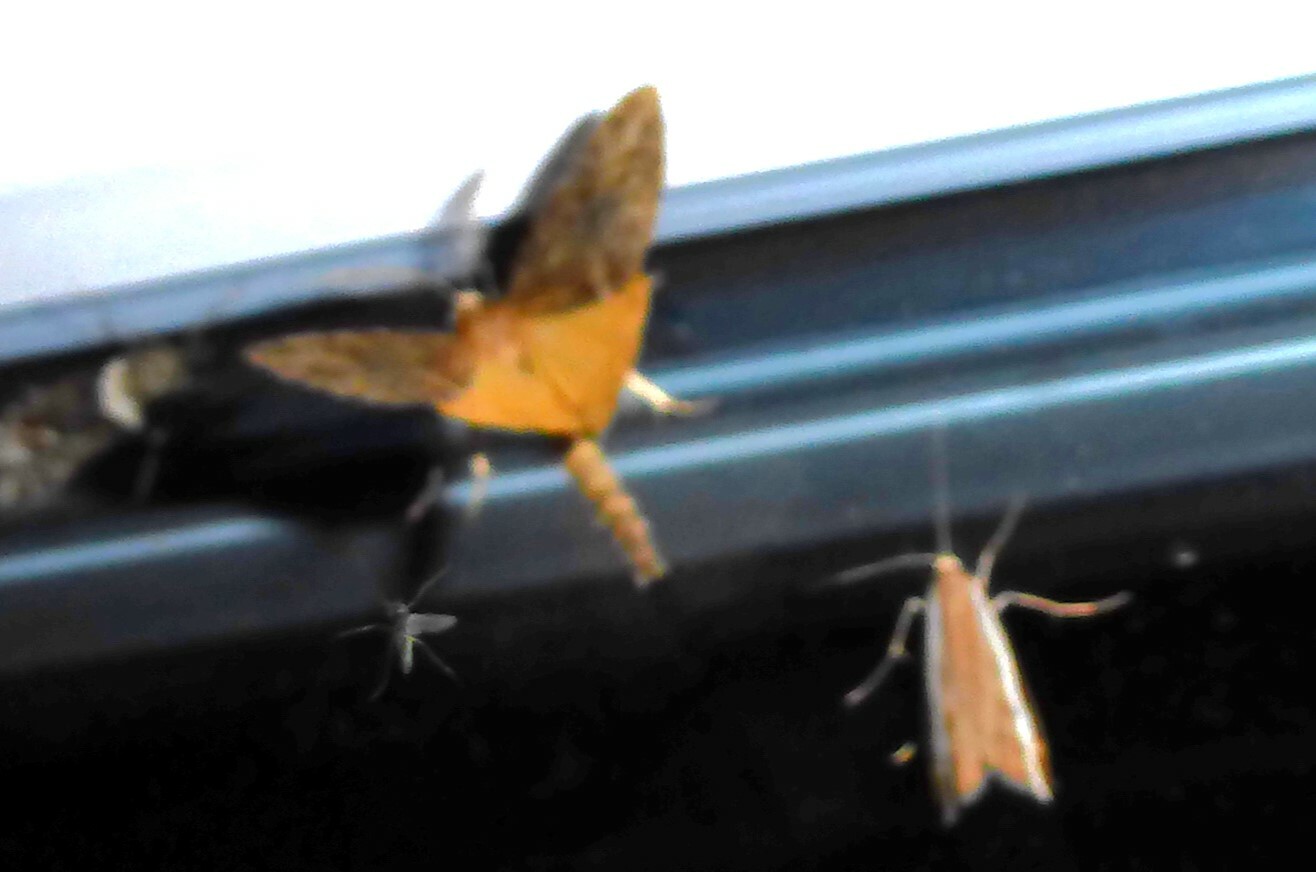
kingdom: Animalia
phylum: Arthropoda
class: Insecta
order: Lepidoptera
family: Geometridae
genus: Pseudocoremia
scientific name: Pseudocoremia suavis
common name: Common forest looper
